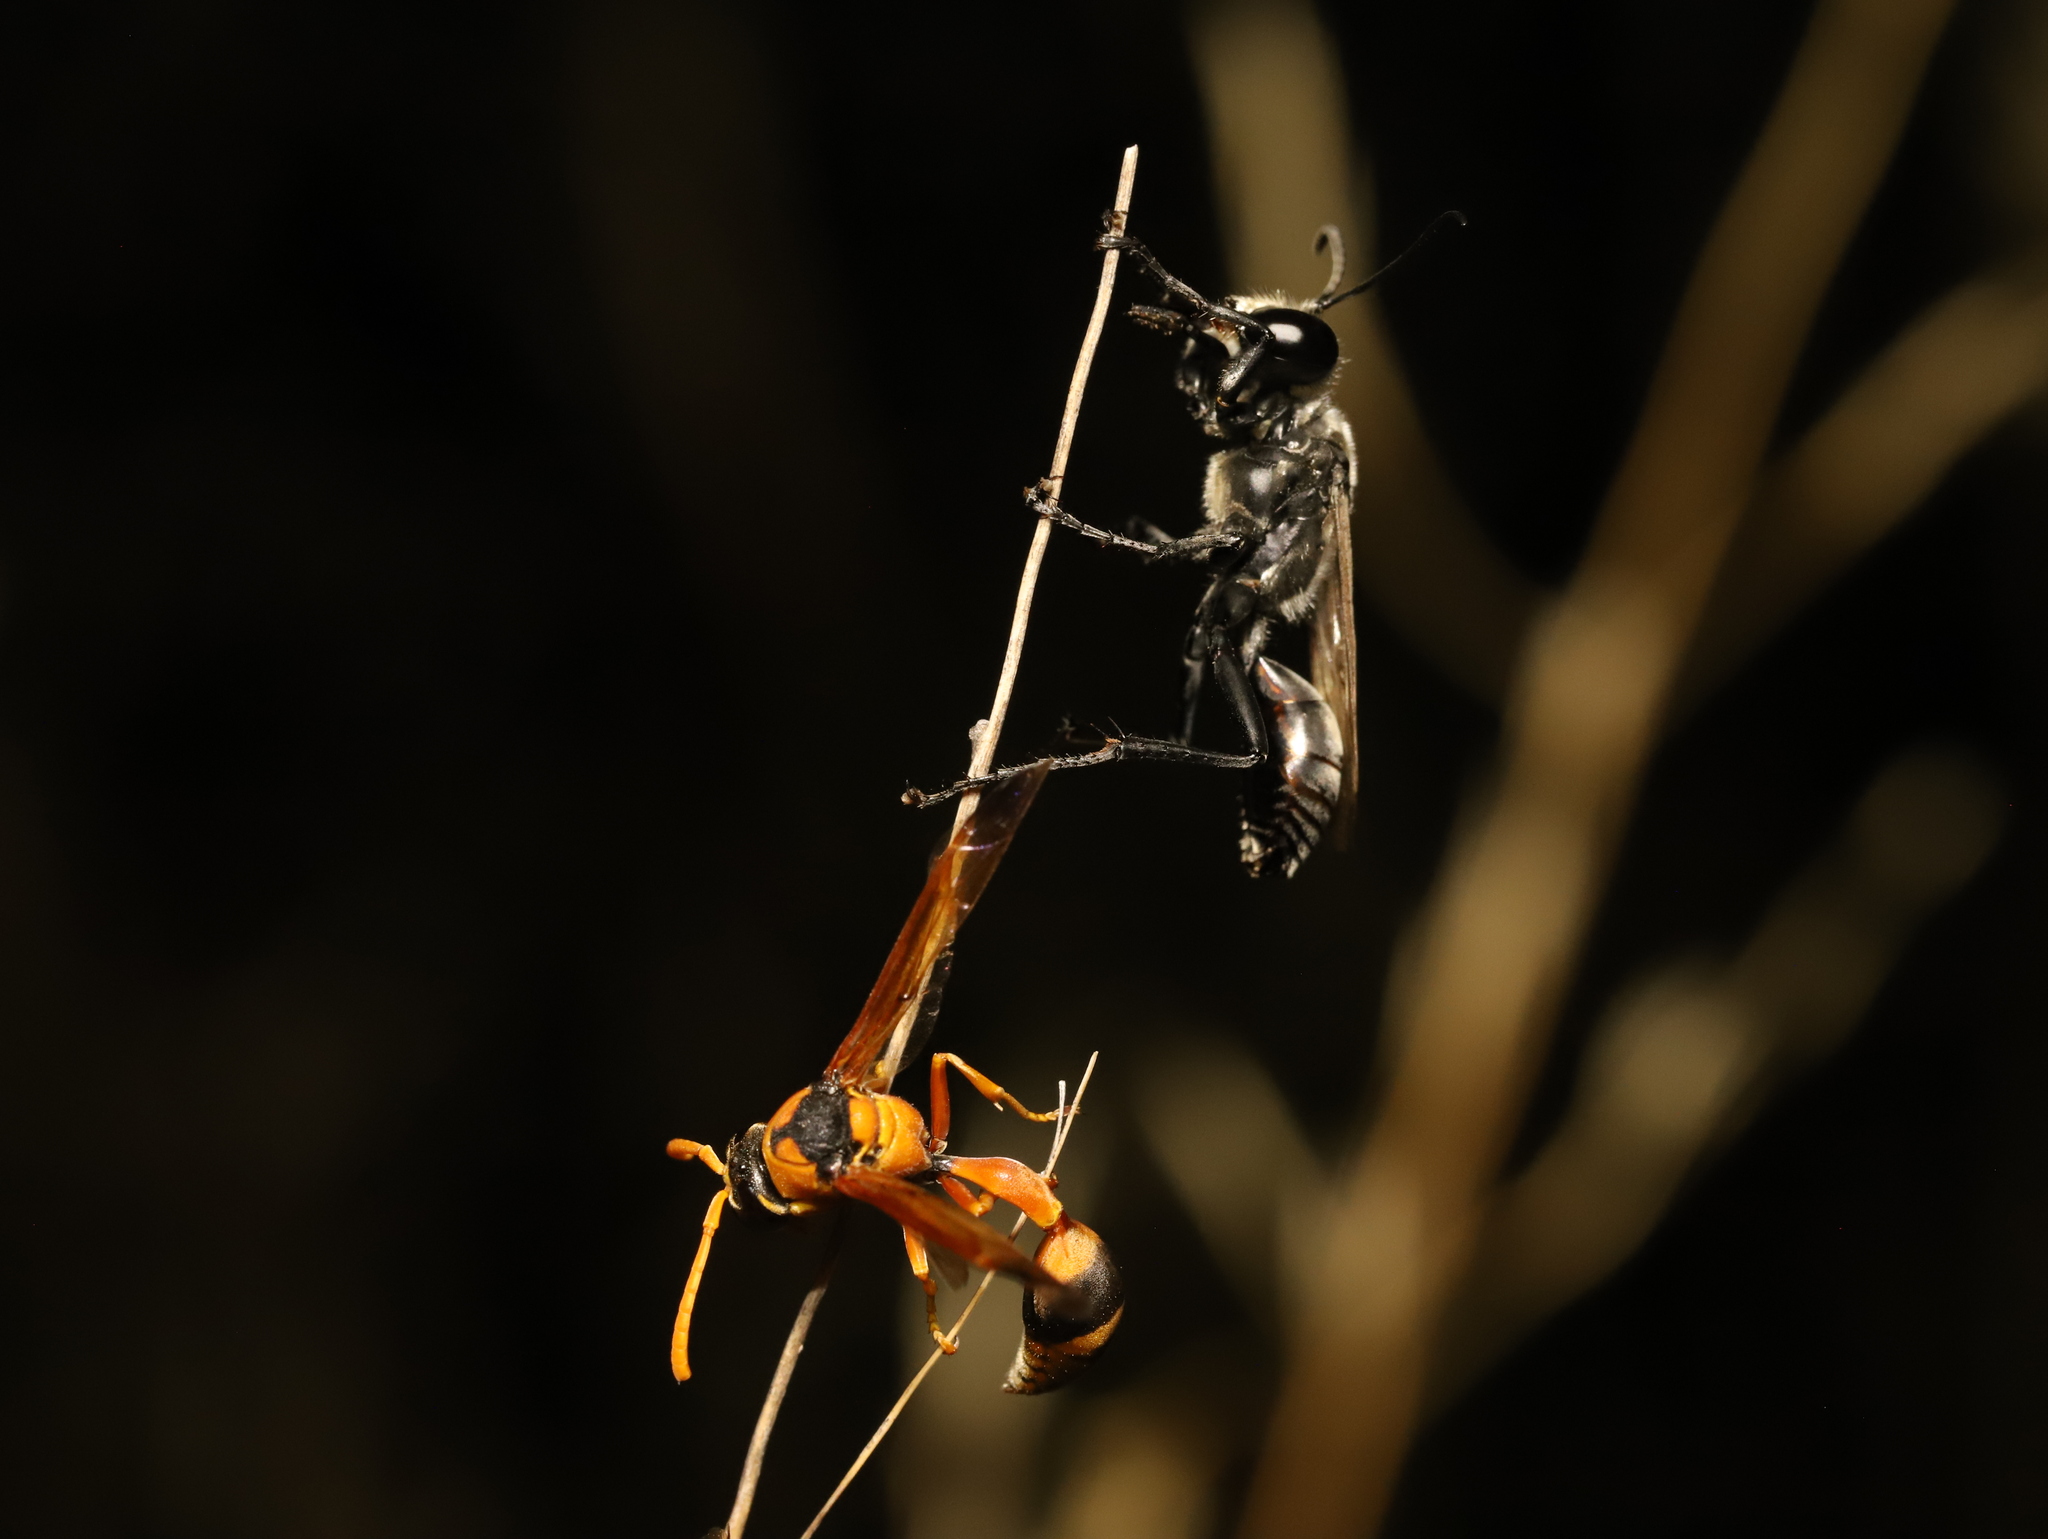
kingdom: Animalia
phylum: Arthropoda
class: Insecta
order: Hymenoptera
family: Eumenidae
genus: Delta
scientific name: Delta bicinctum
